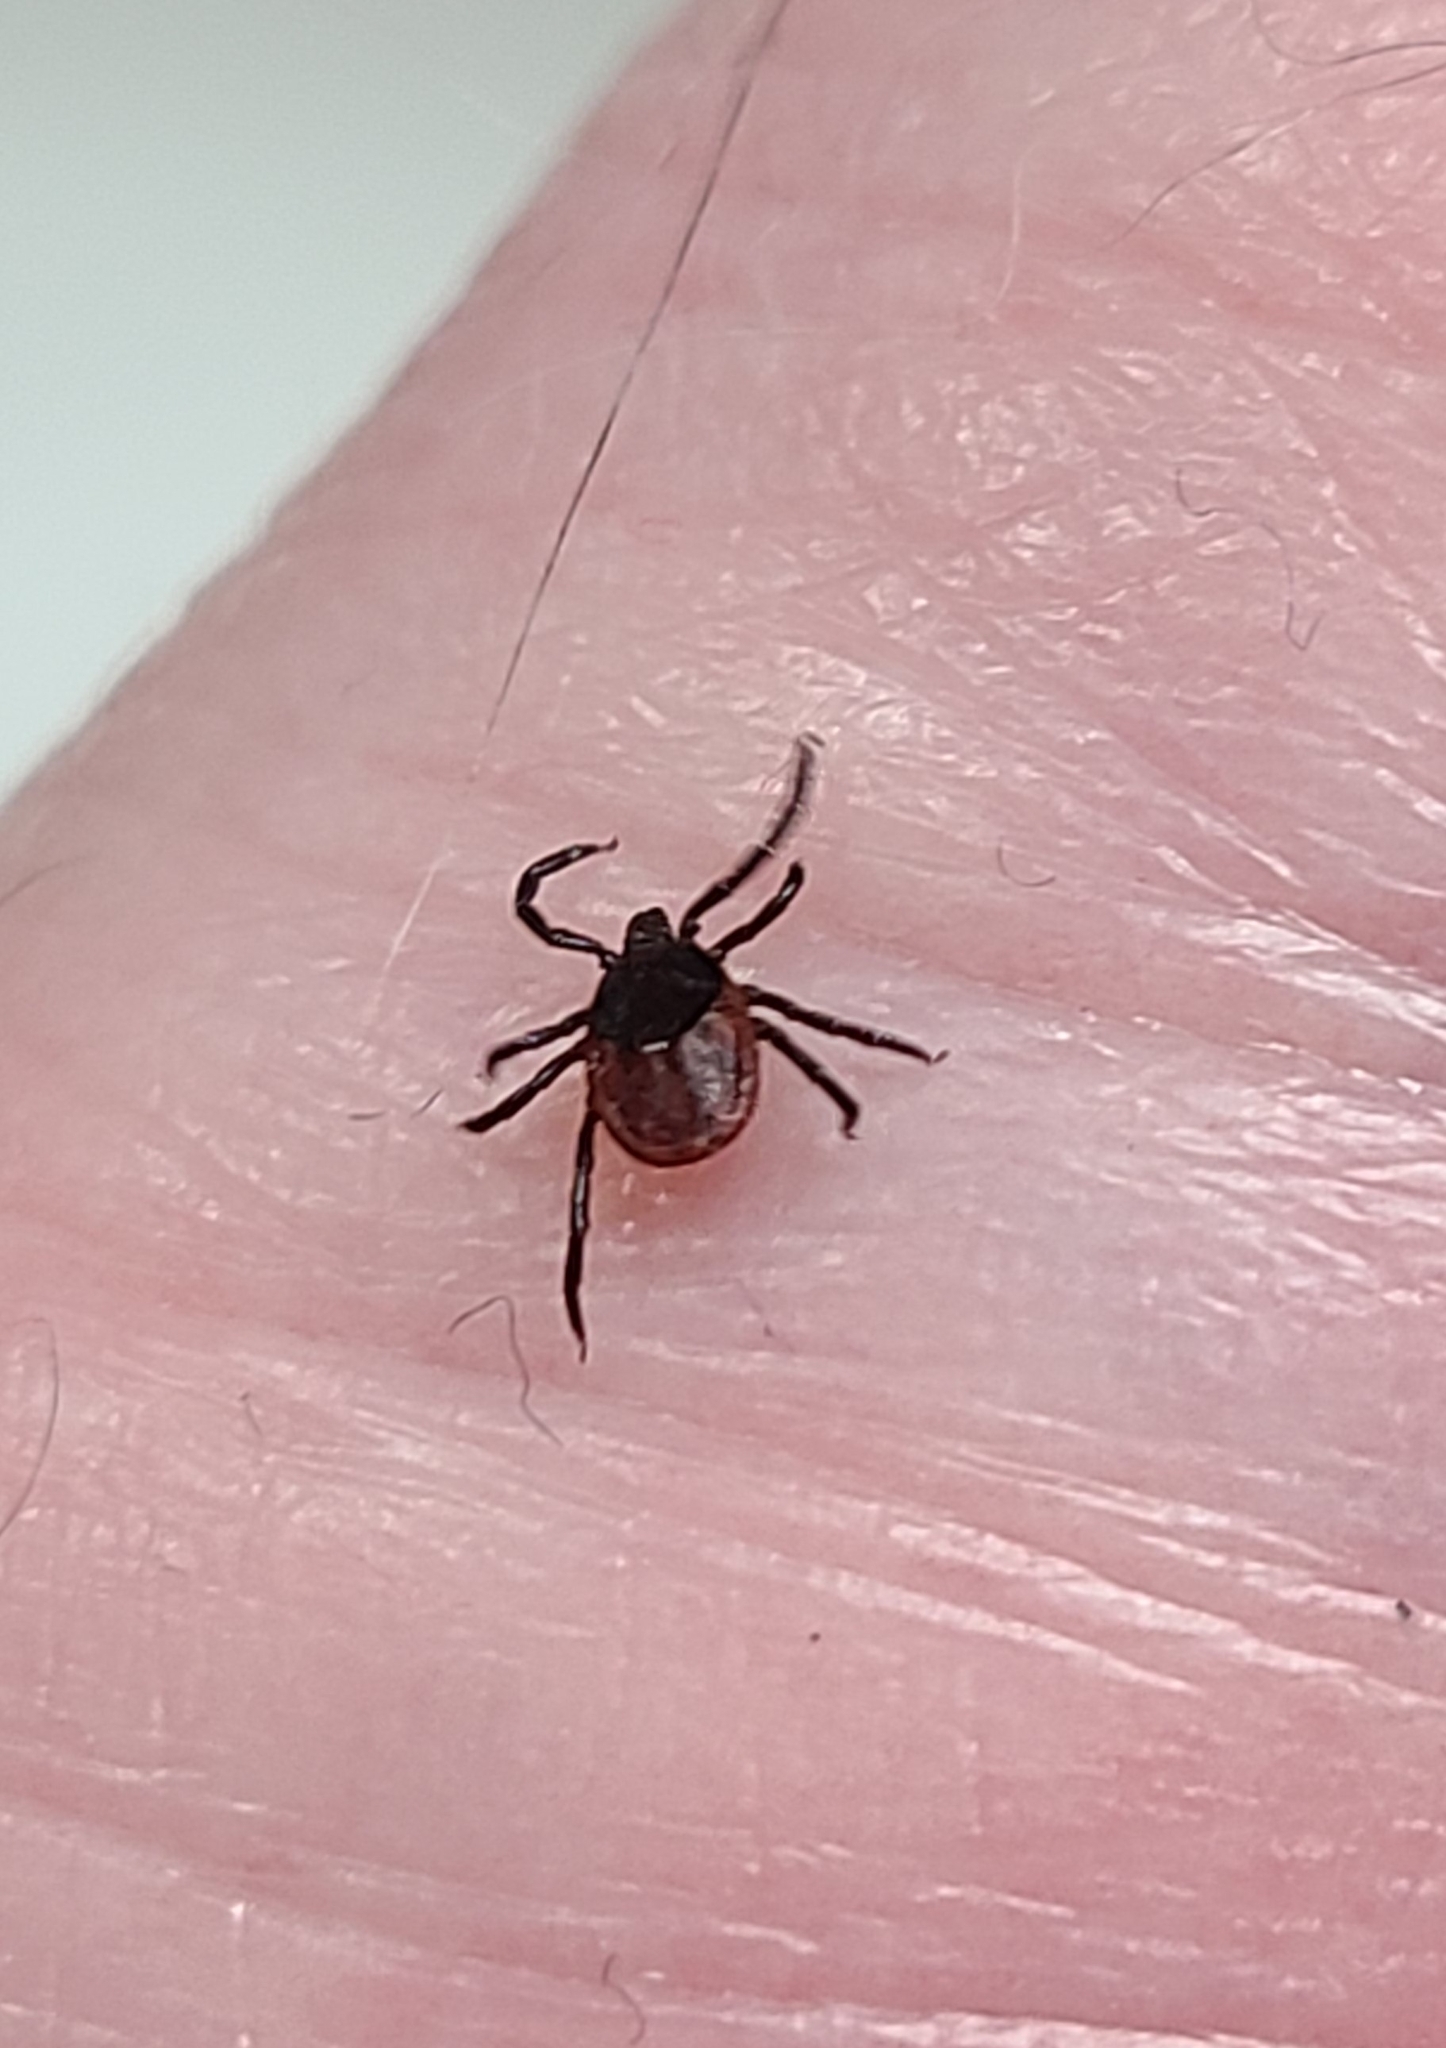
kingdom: Animalia
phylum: Arthropoda
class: Arachnida
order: Ixodida
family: Ixodidae
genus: Ixodes
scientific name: Ixodes pacificus
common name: California black-legged tick
